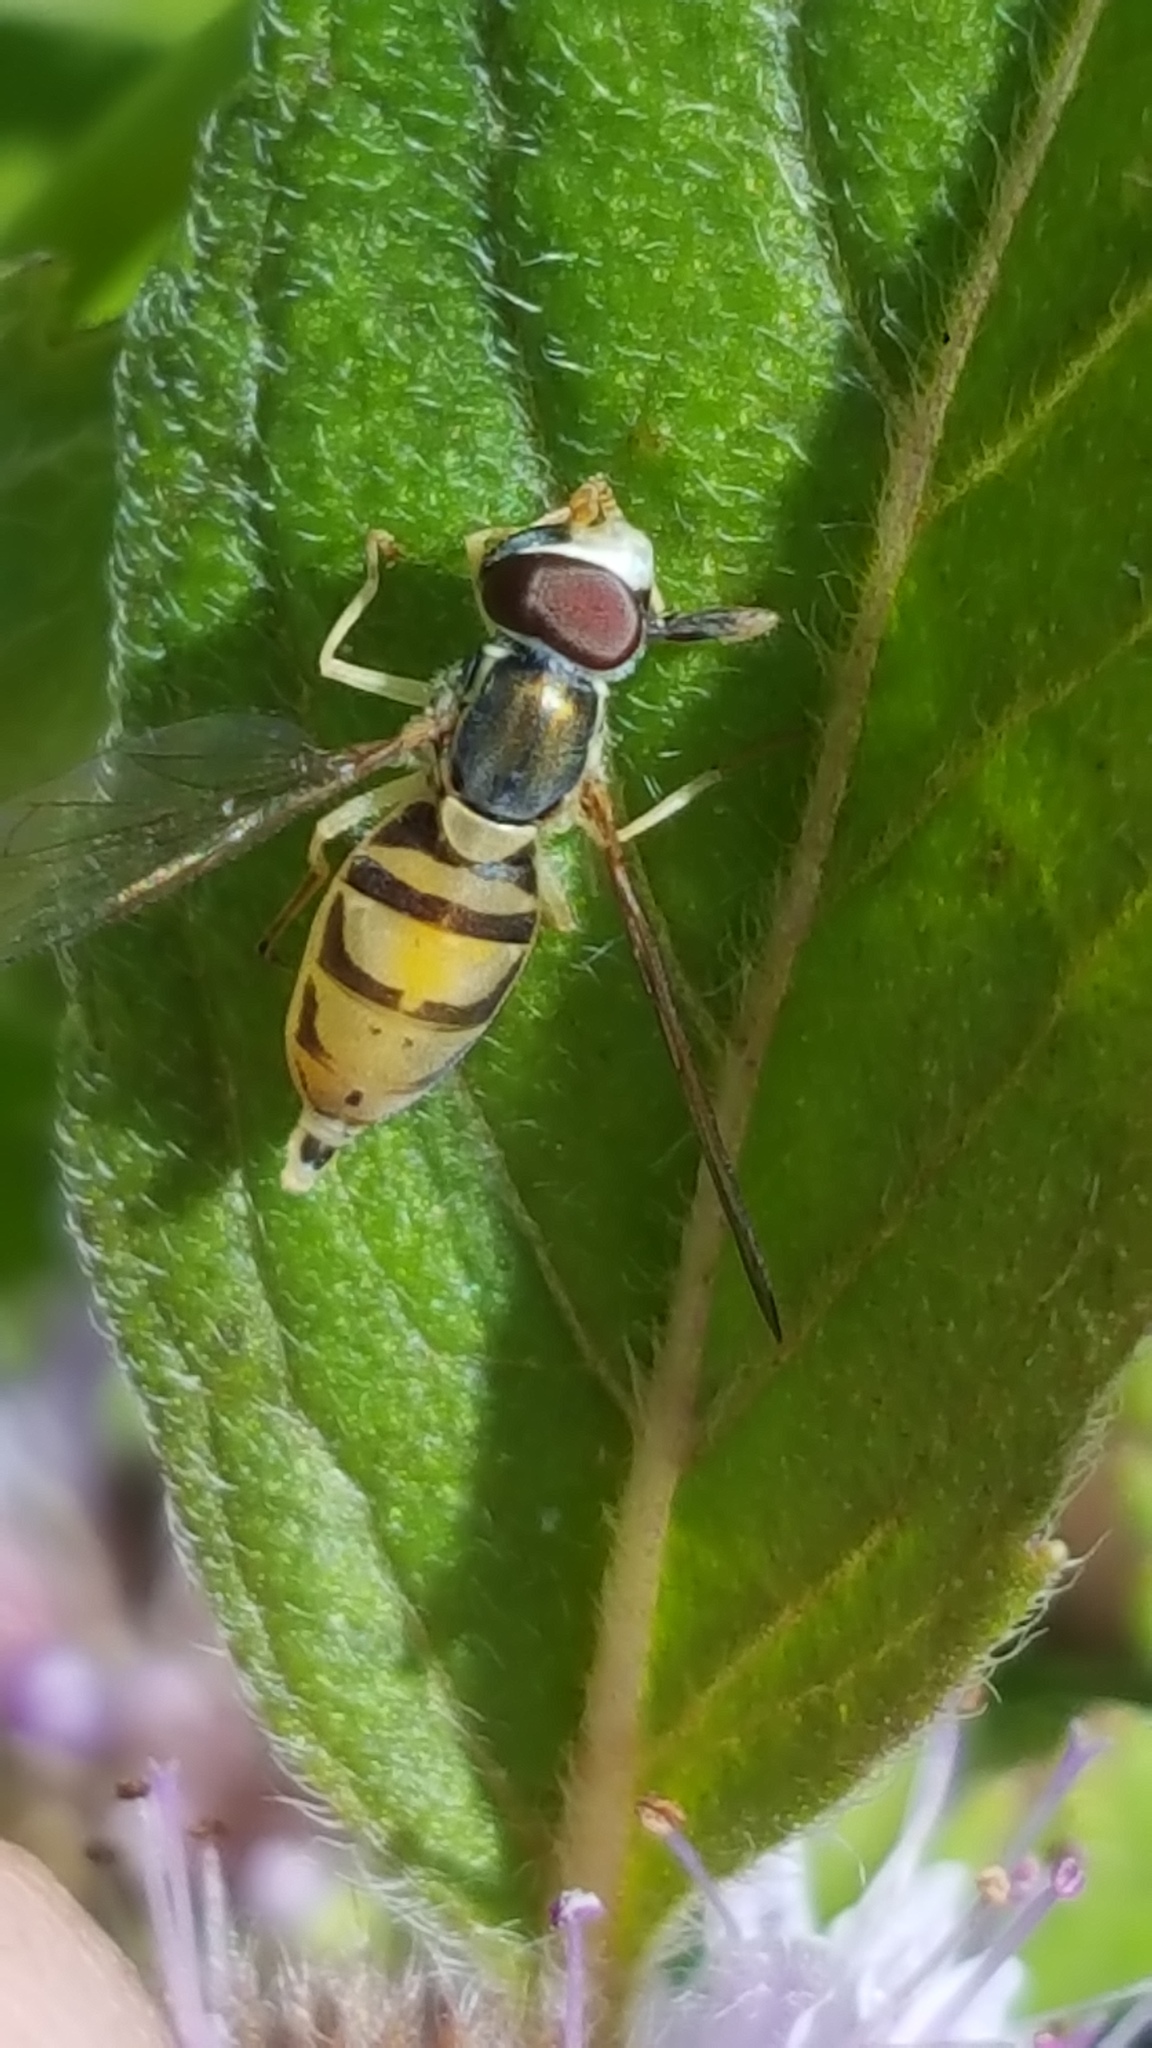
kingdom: Animalia
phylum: Arthropoda
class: Insecta
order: Diptera
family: Syrphidae
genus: Toxomerus
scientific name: Toxomerus marginatus
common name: Syrphid fly
